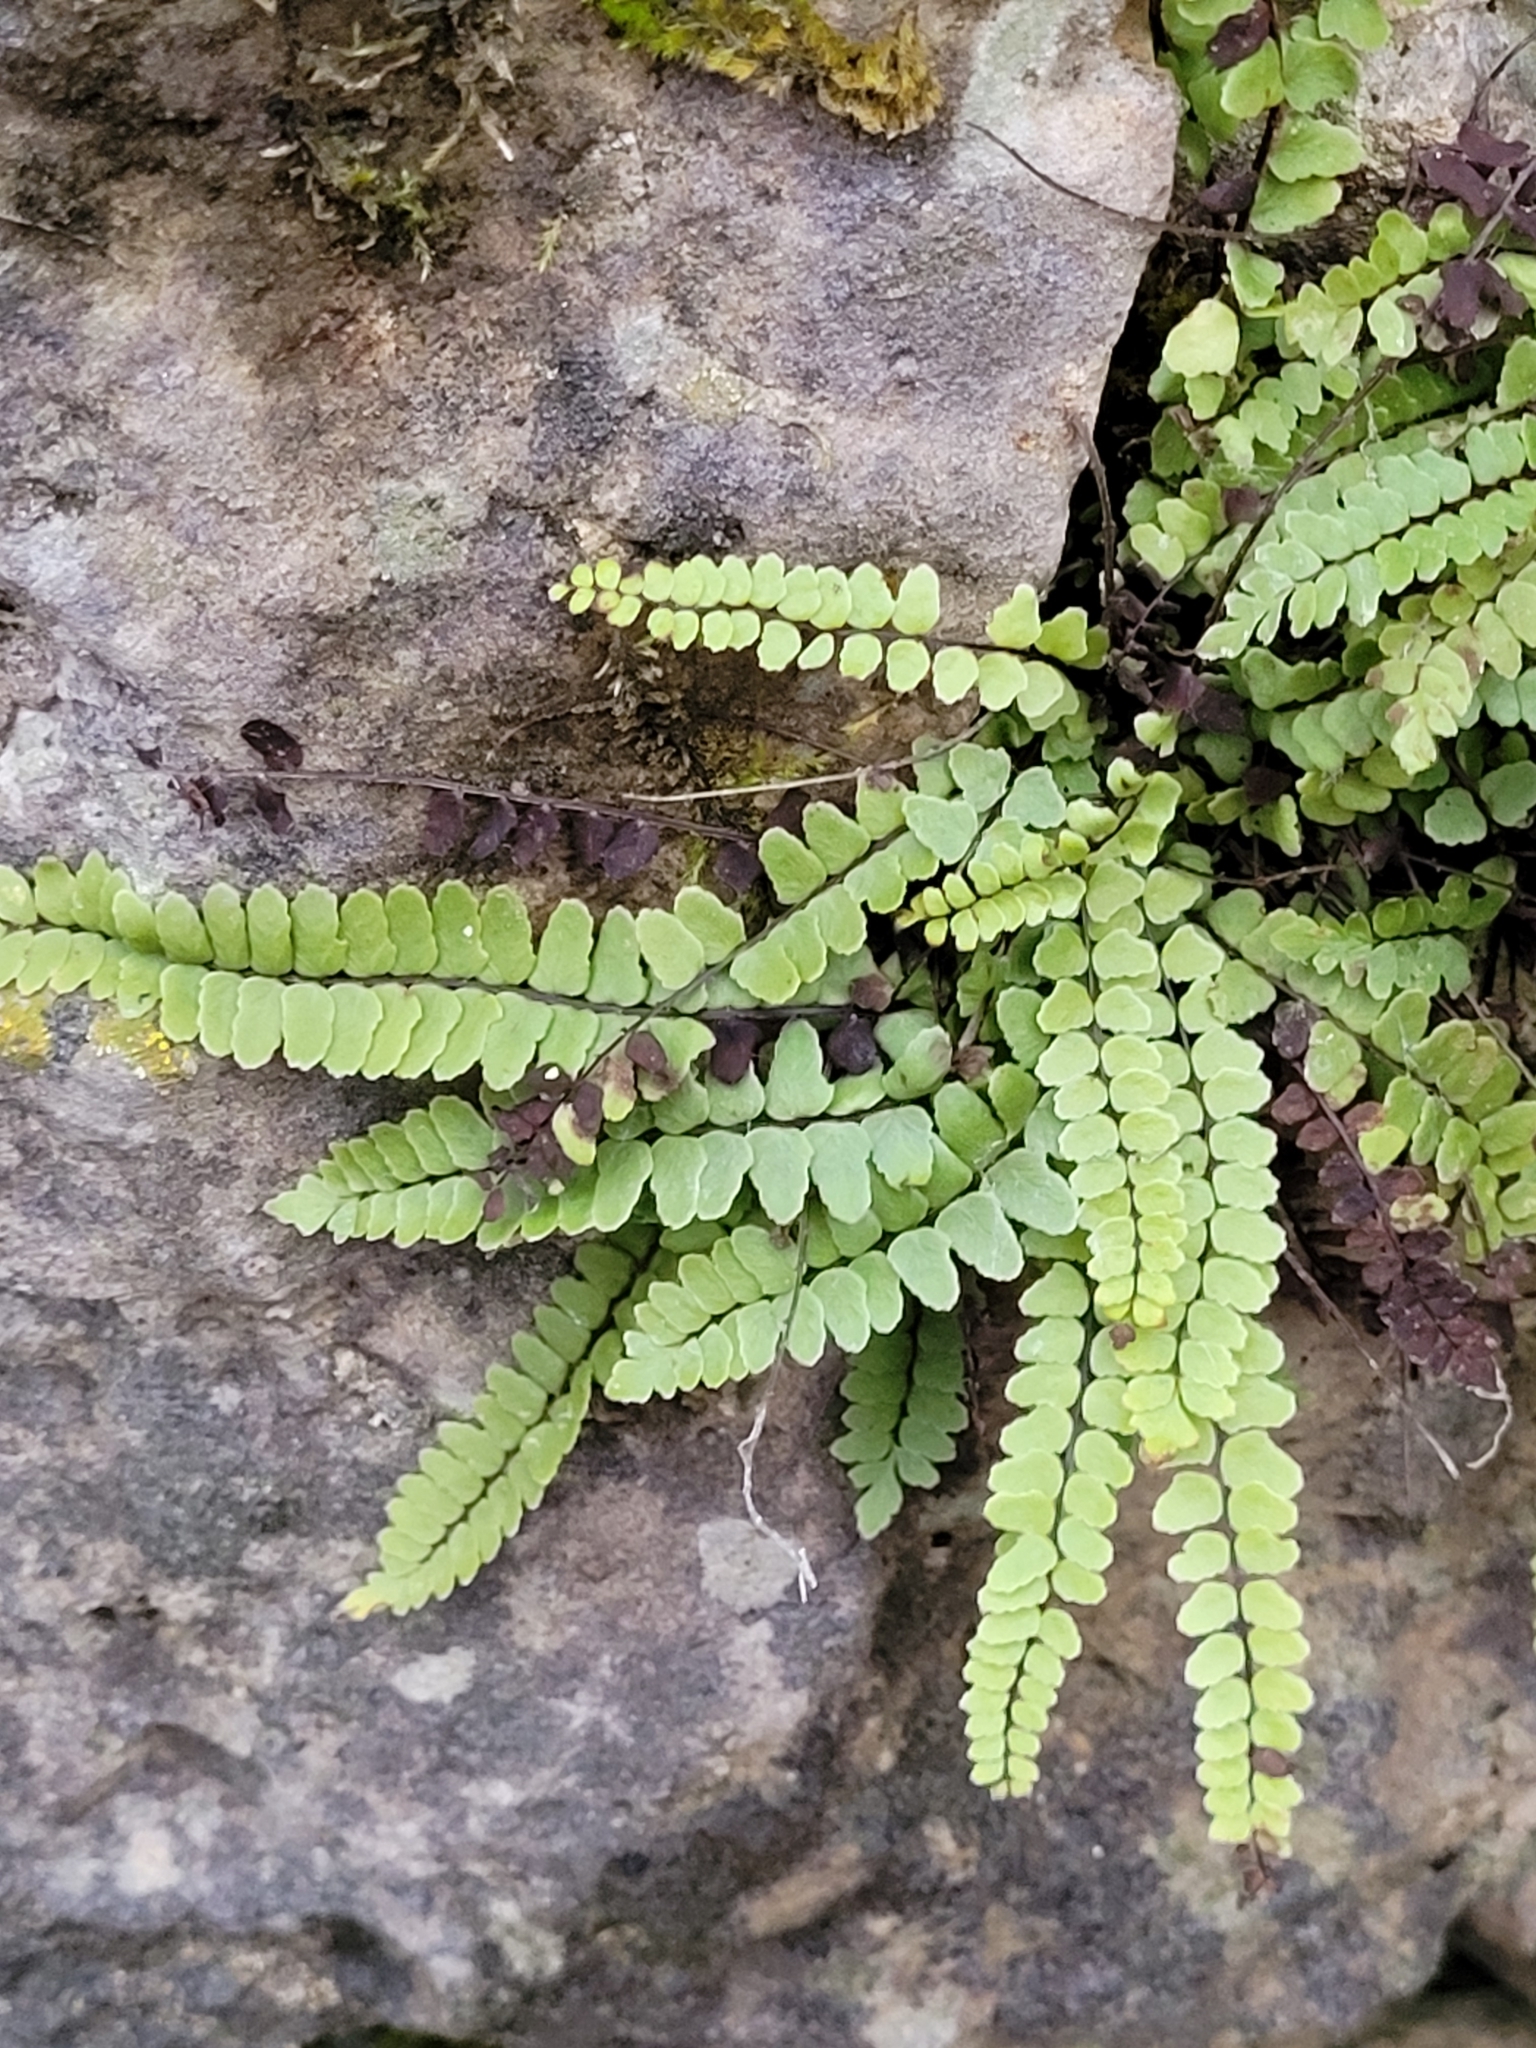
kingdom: Plantae
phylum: Tracheophyta
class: Polypodiopsida
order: Polypodiales
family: Aspleniaceae
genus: Asplenium
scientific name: Asplenium trichomanes
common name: Maidenhair spleenwort
